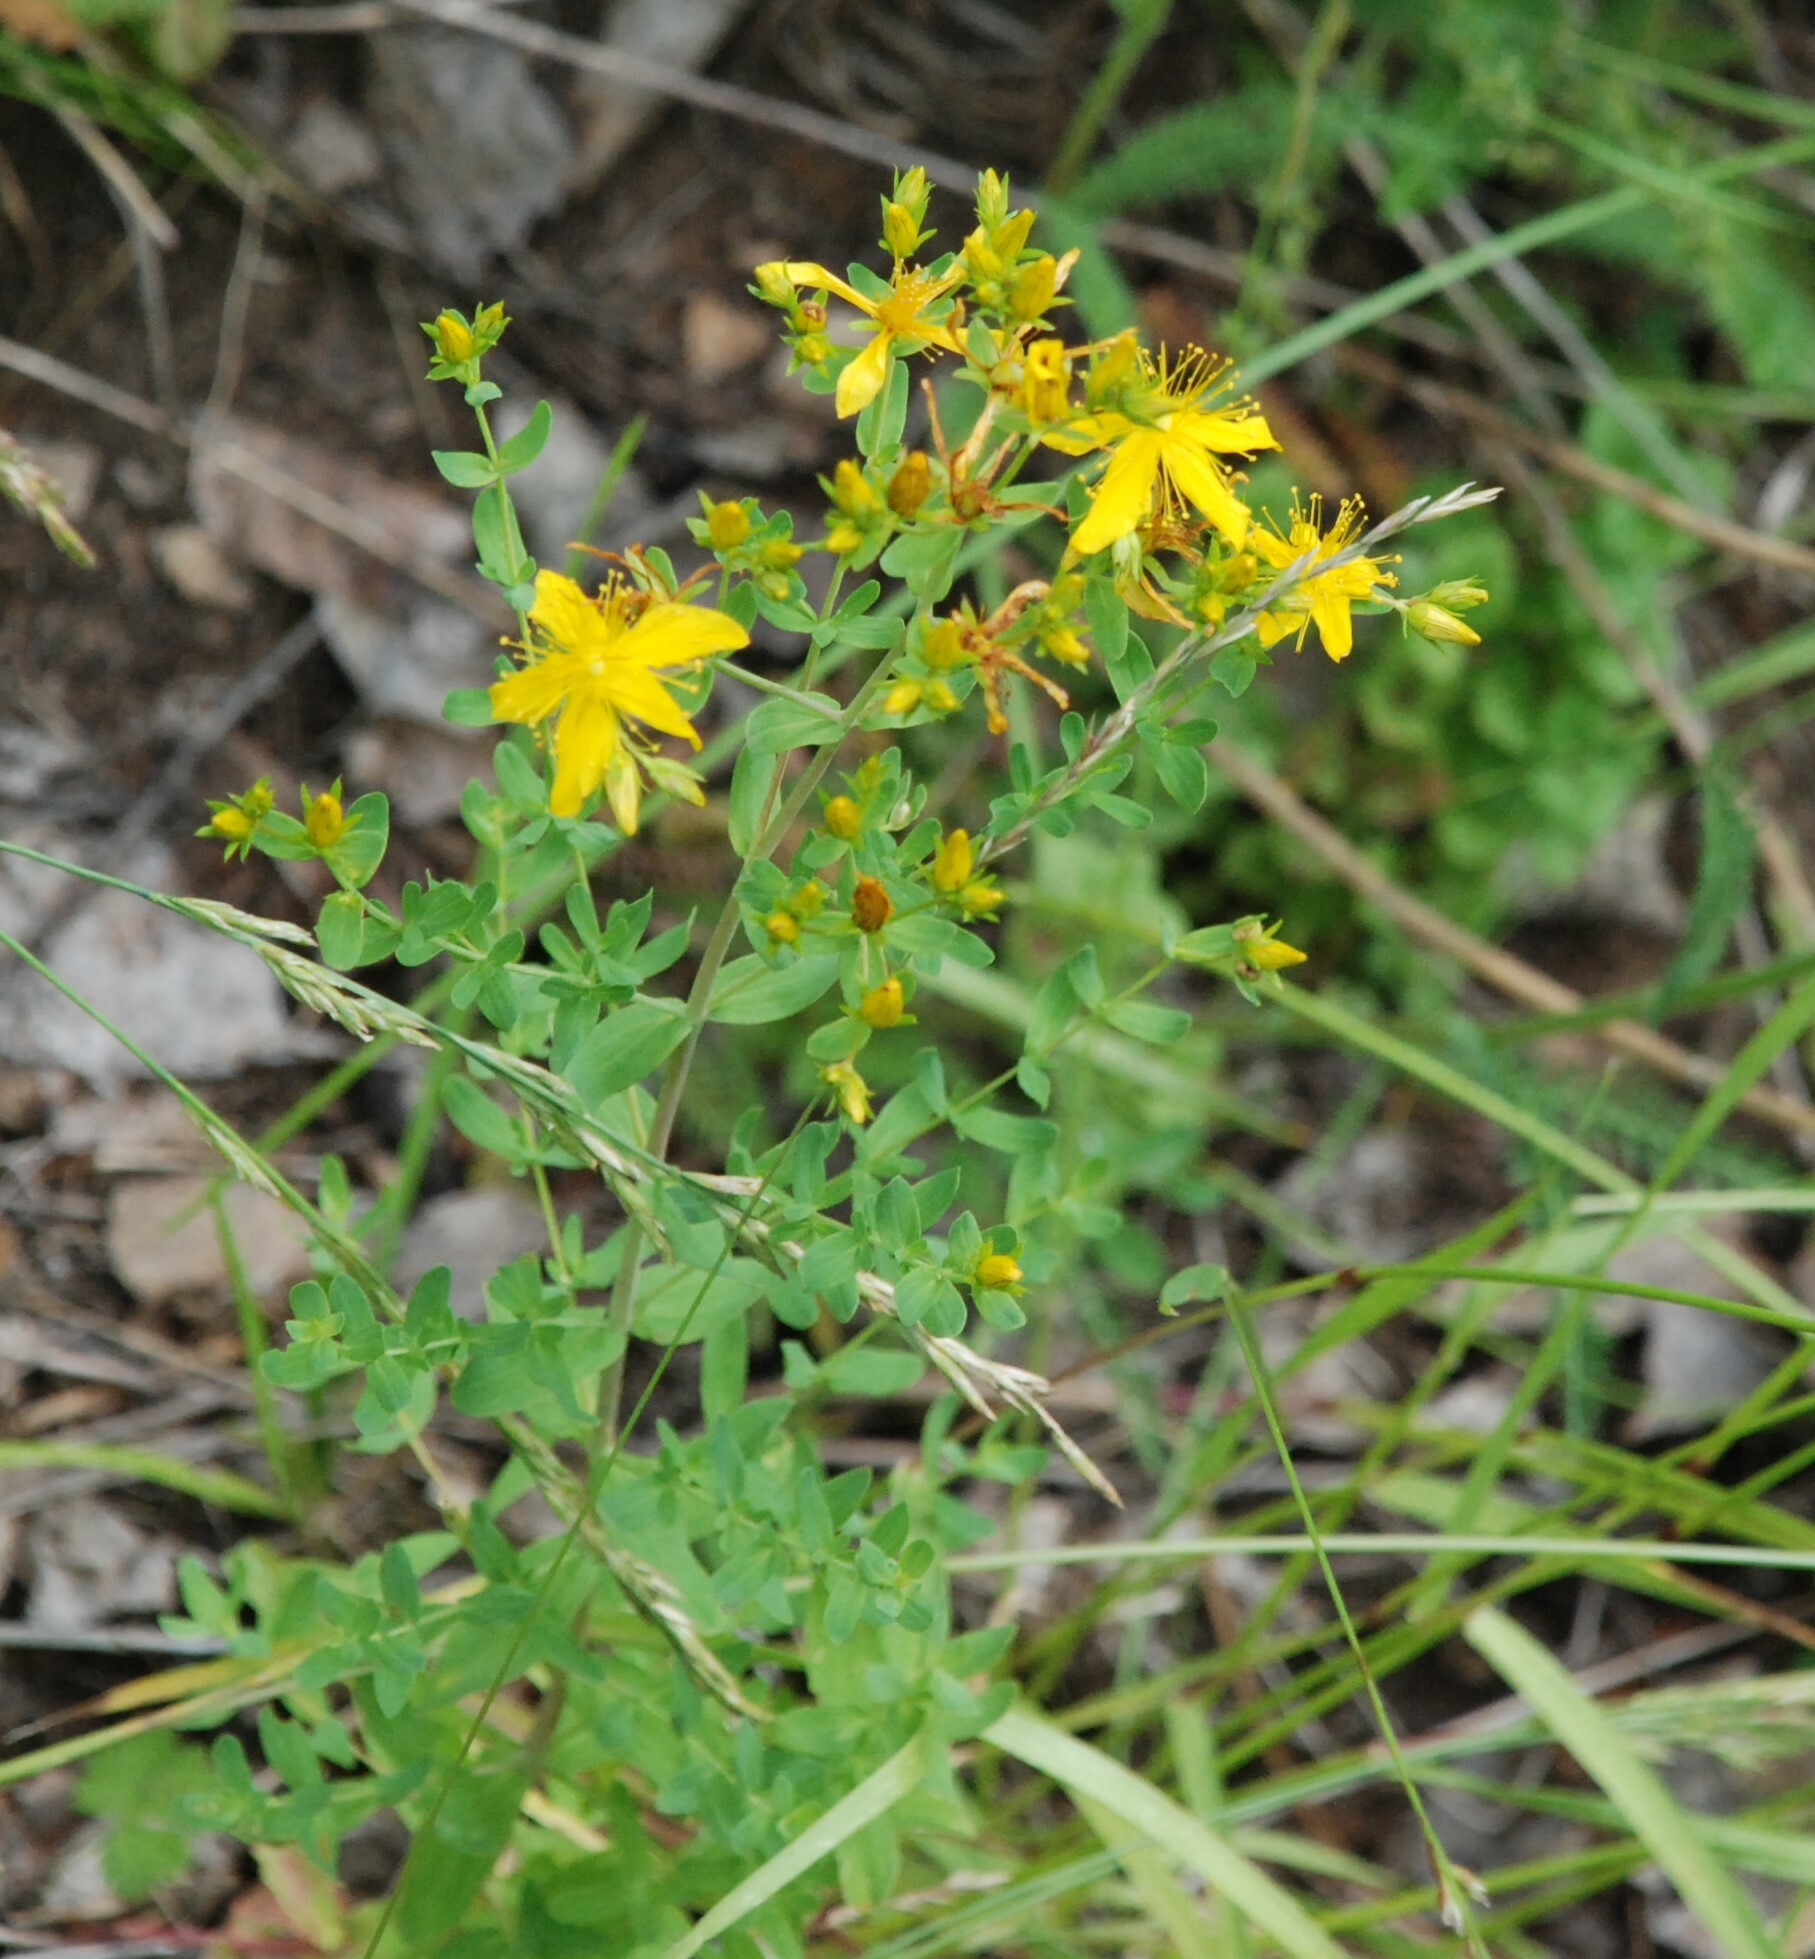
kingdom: Plantae
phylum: Tracheophyta
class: Magnoliopsida
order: Malpighiales
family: Hypericaceae
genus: Hypericum
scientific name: Hypericum perforatum
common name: Common st. johnswort
